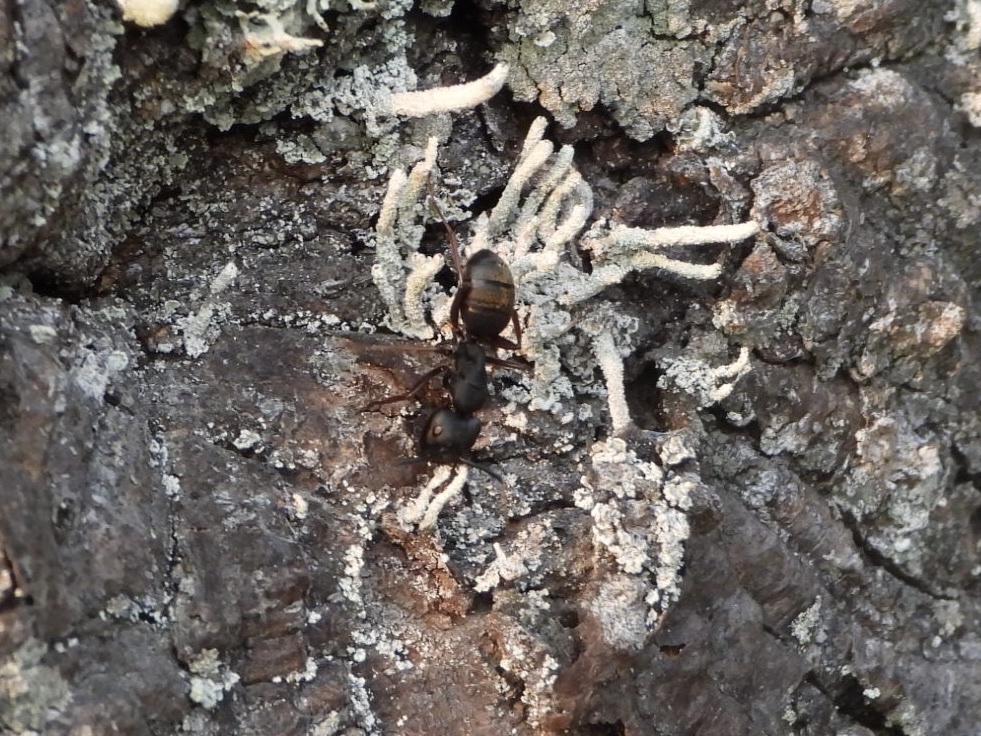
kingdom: Animalia
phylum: Arthropoda
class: Insecta
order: Hymenoptera
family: Formicidae
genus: Camponotus
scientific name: Camponotus modoc
